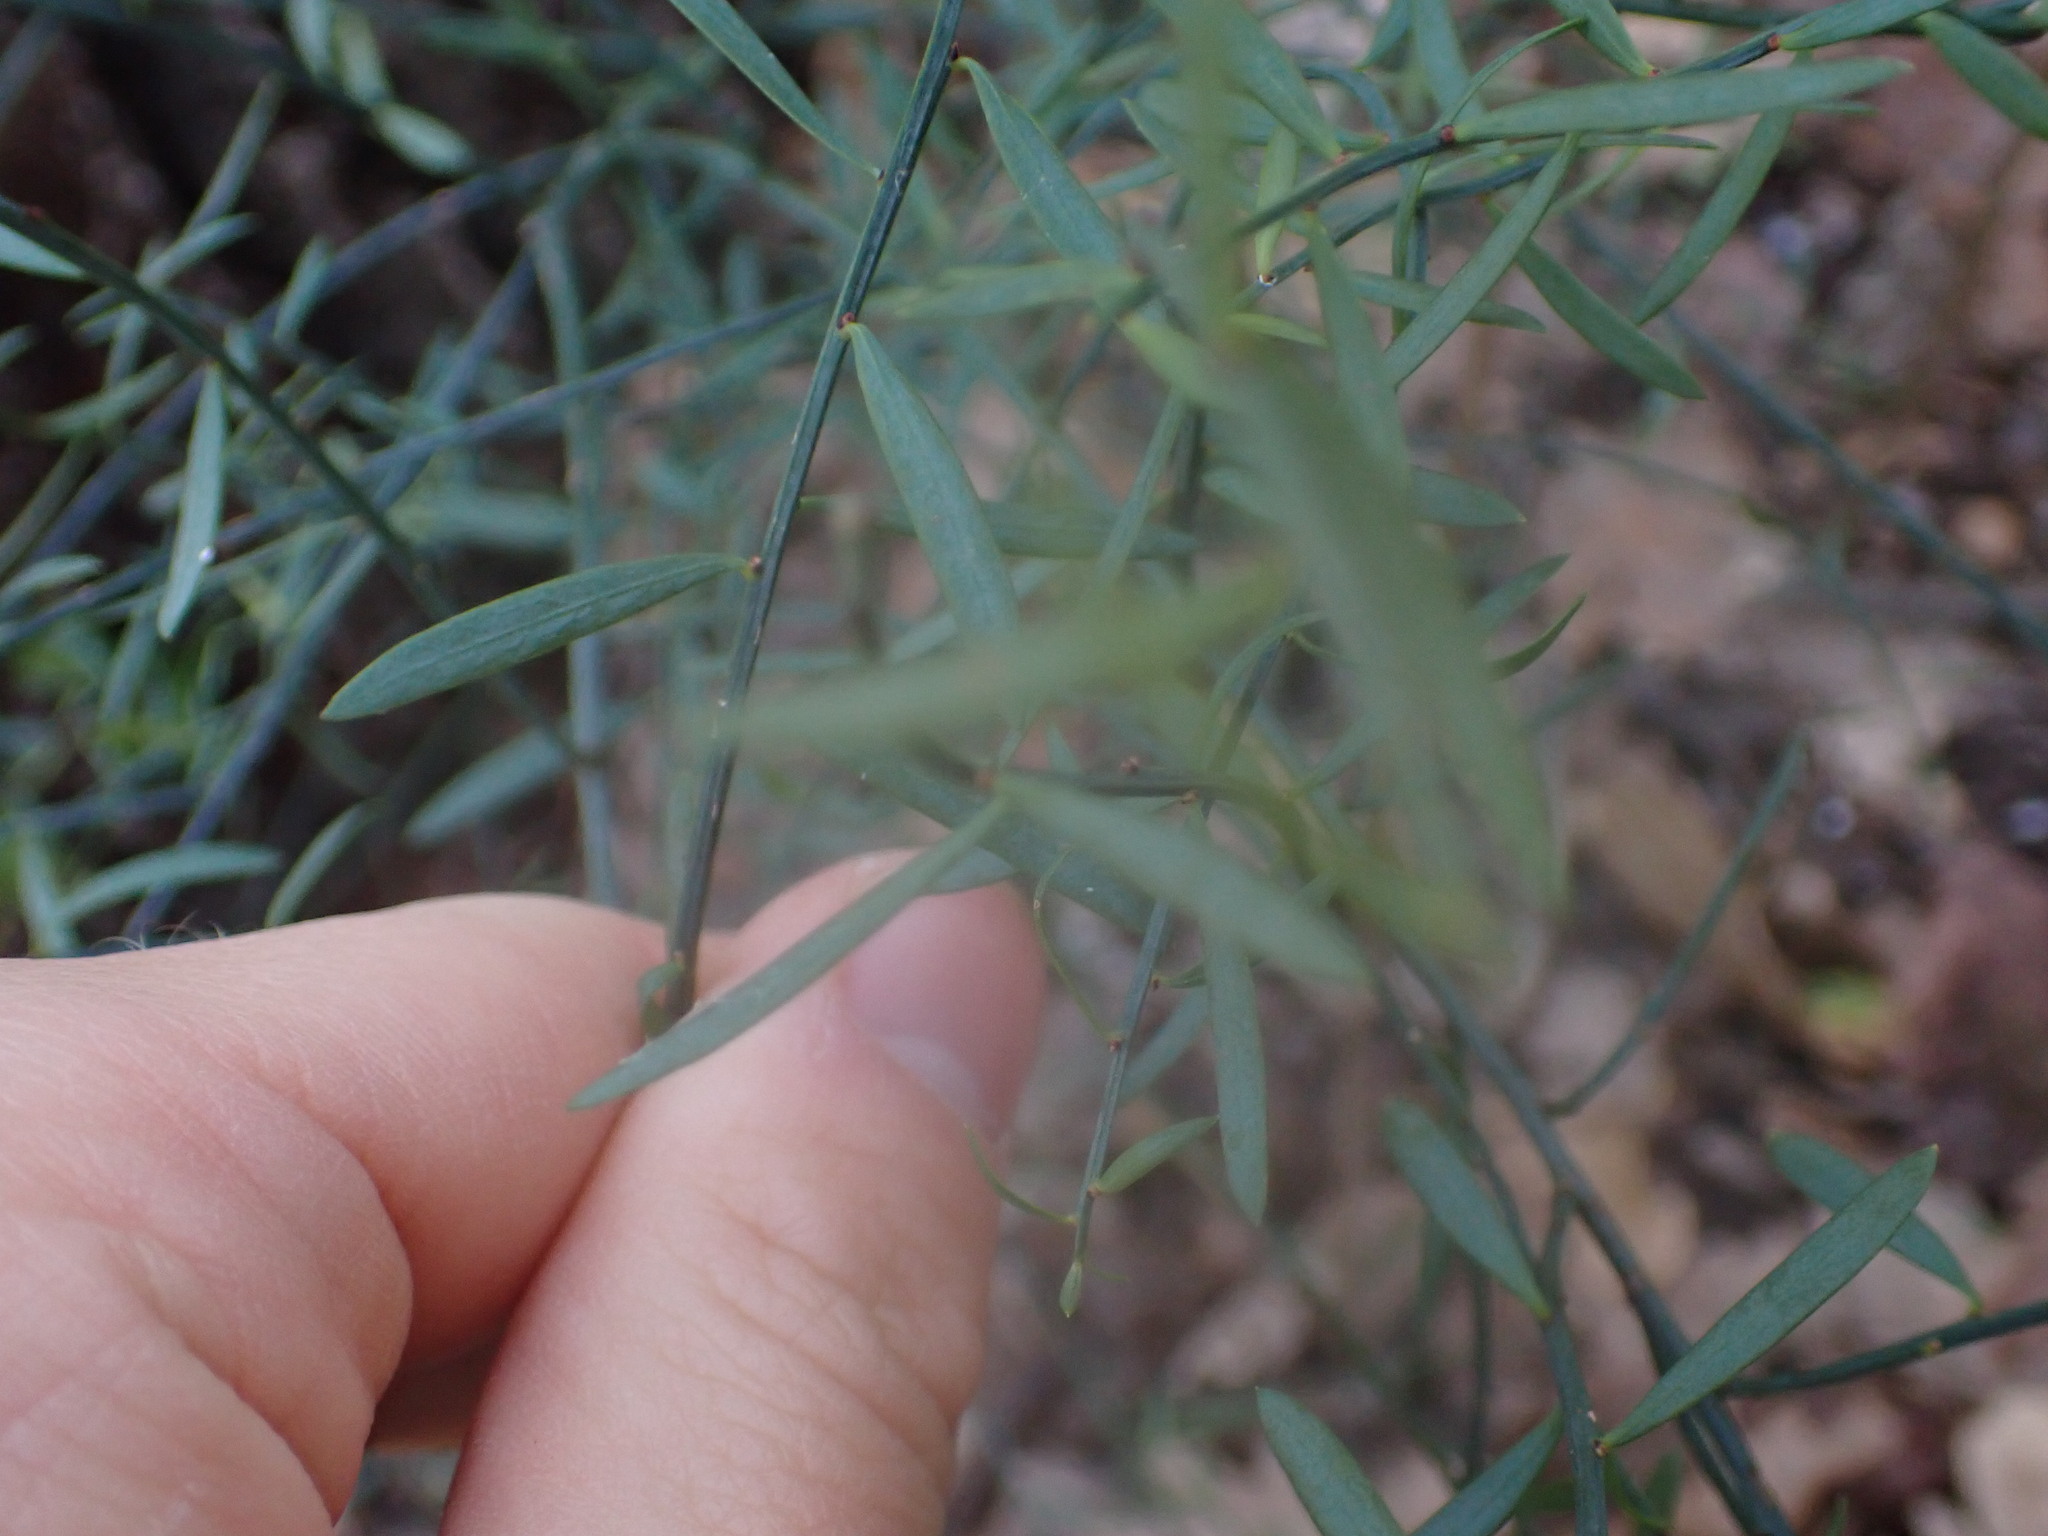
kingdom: Plantae
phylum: Tracheophyta
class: Magnoliopsida
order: Santalales
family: Santalaceae
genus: Osyris
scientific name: Osyris alba
